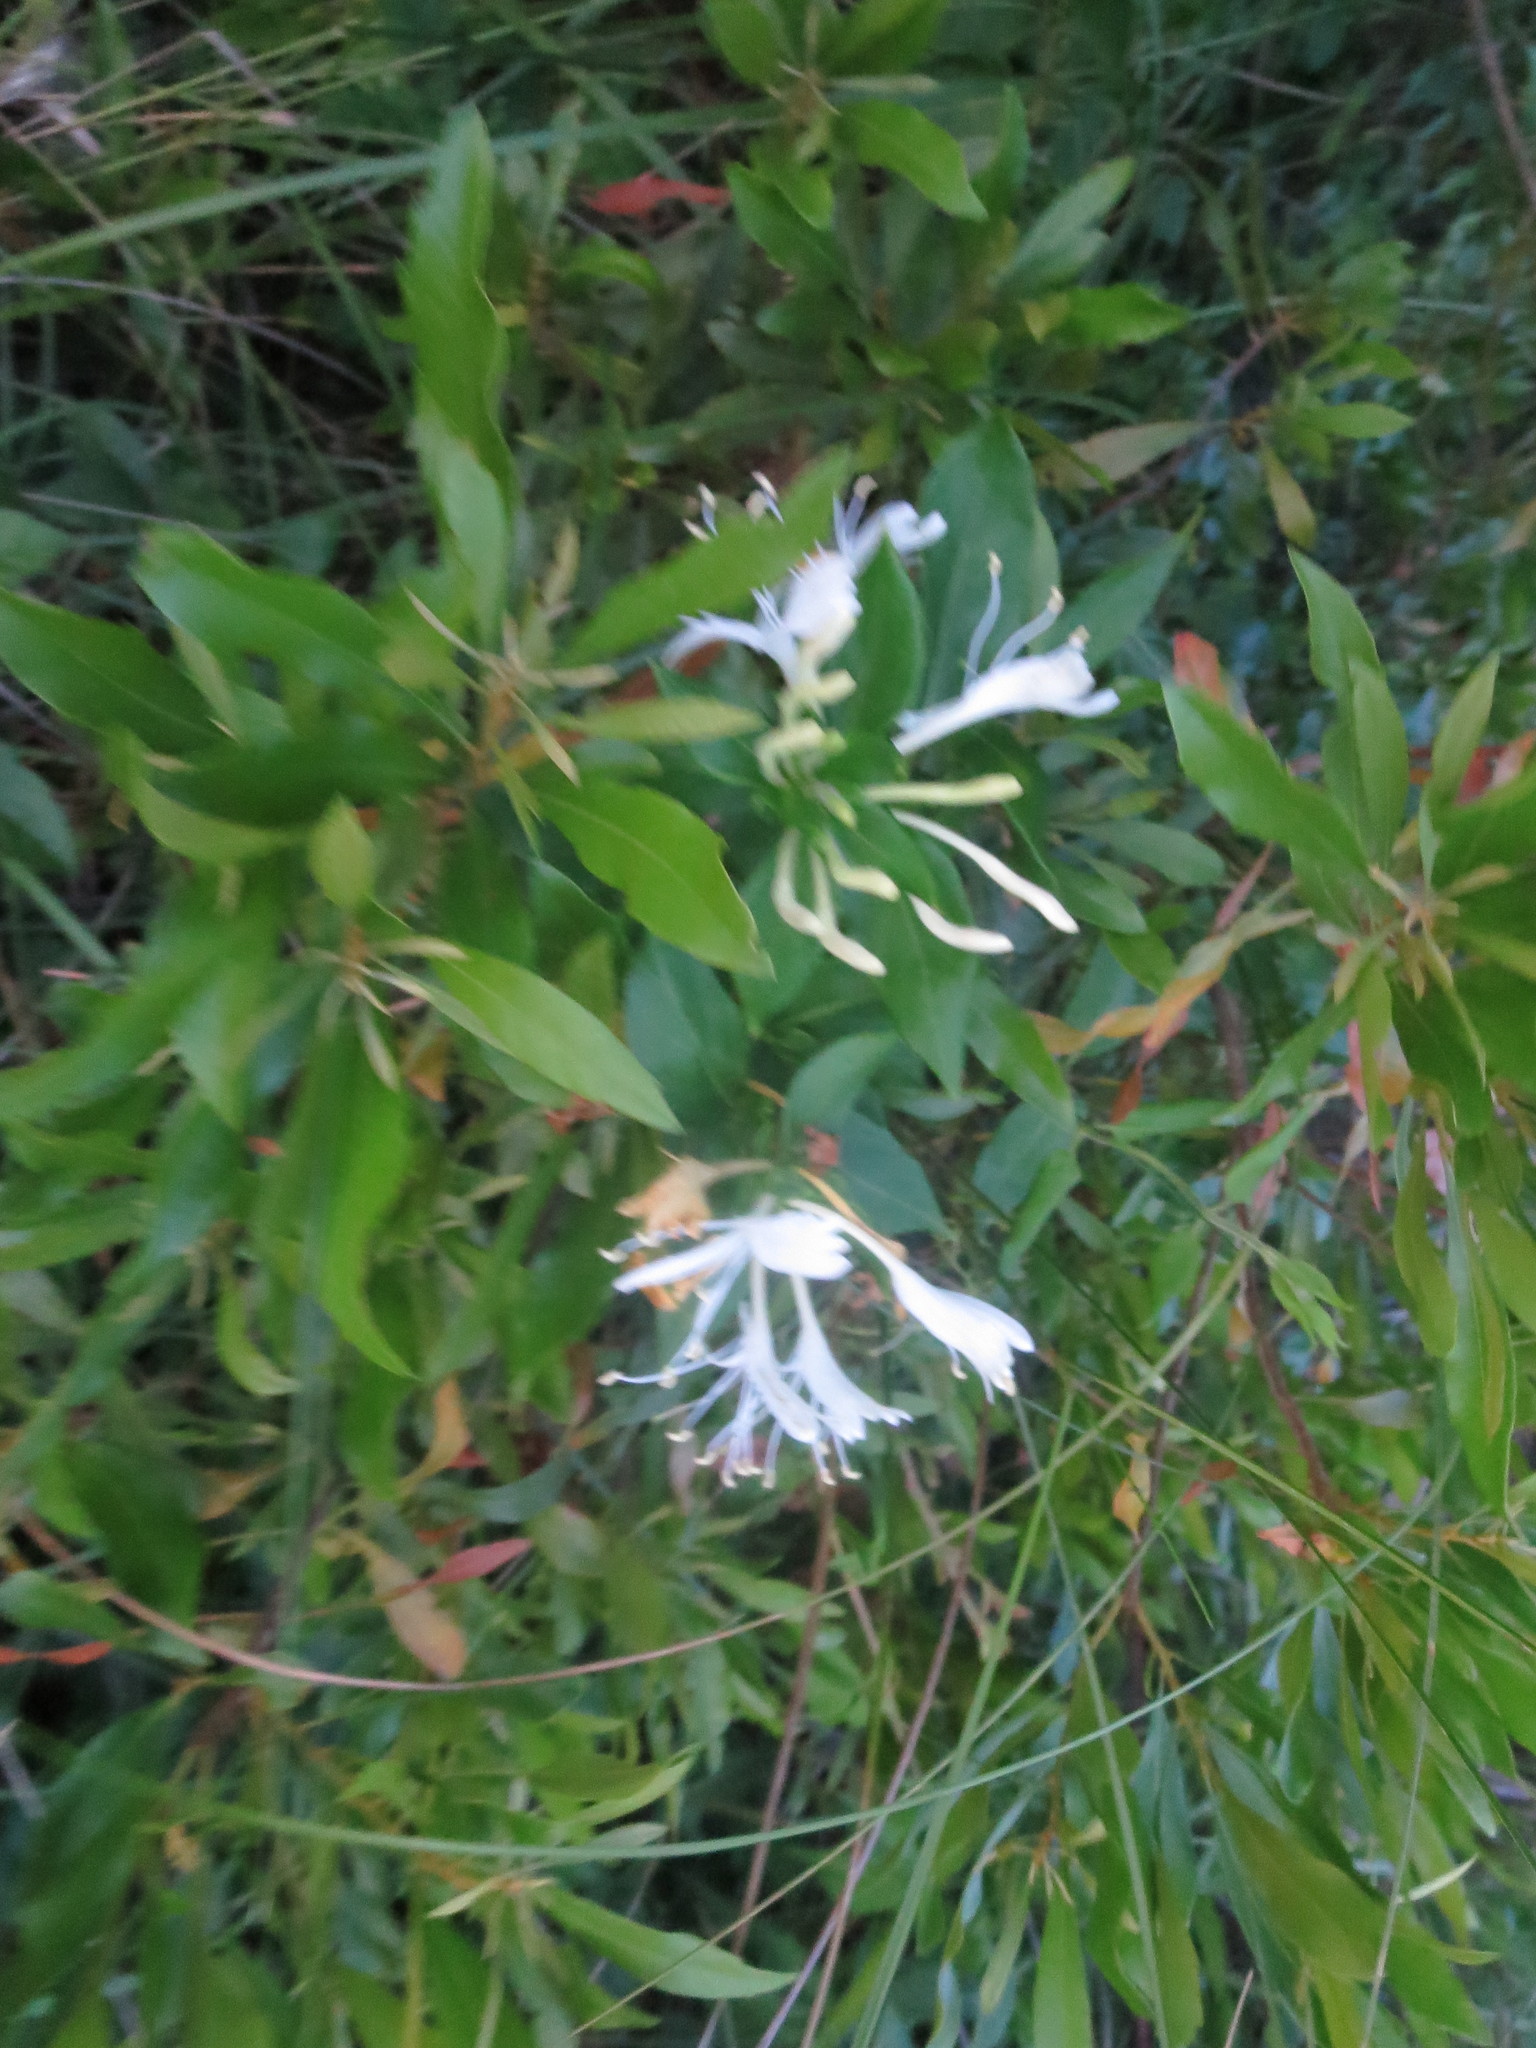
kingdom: Plantae
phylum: Tracheophyta
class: Magnoliopsida
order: Dipsacales
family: Caprifoliaceae
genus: Lonicera
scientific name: Lonicera japonica
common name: Japanese honeysuckle
